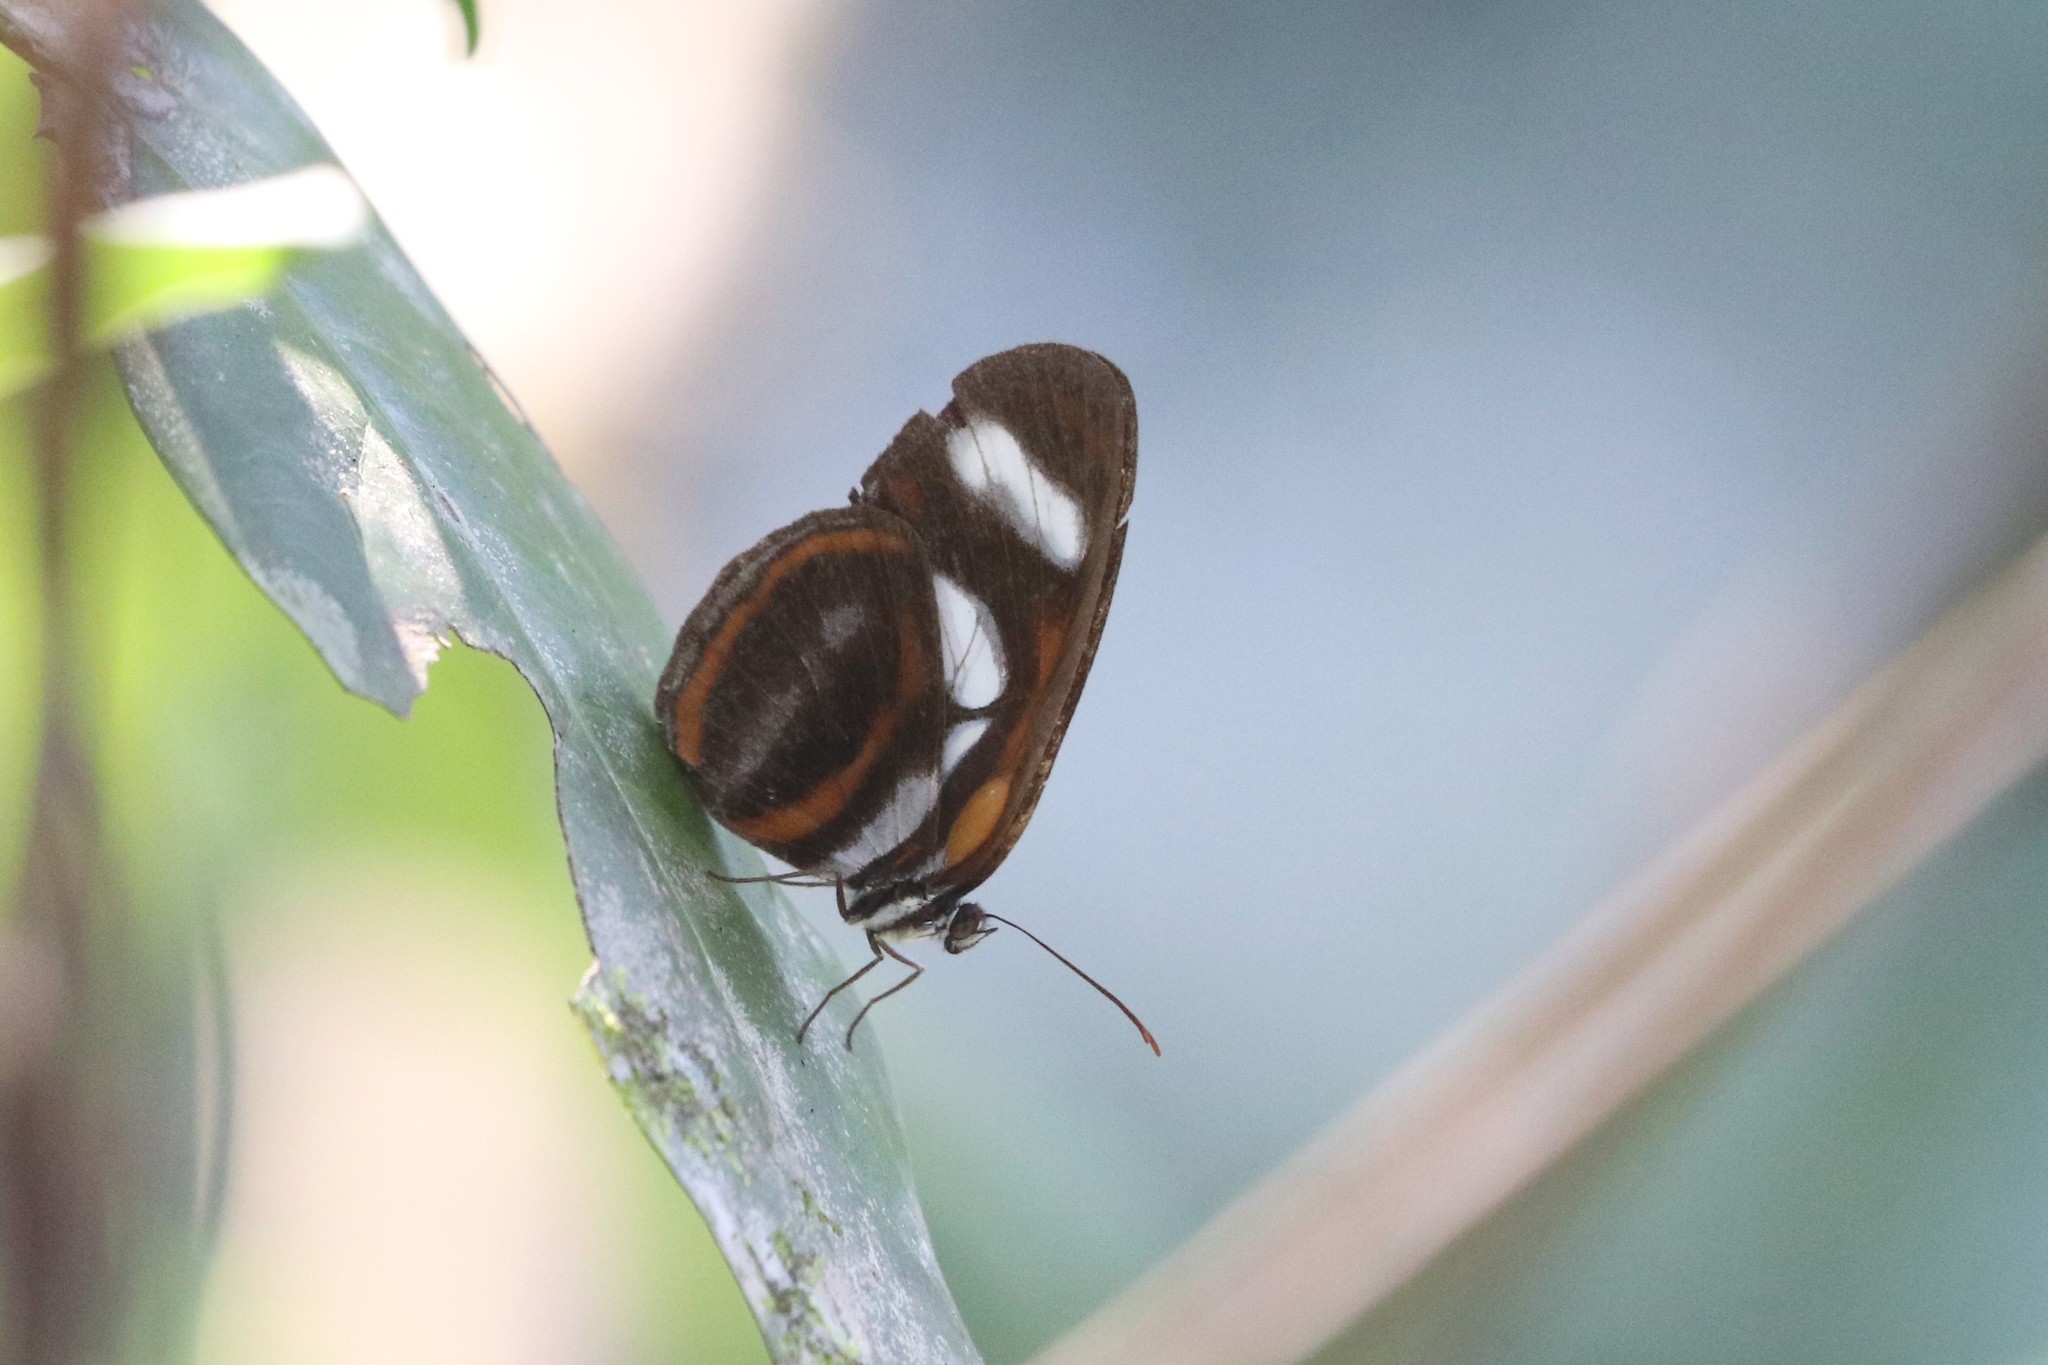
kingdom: Animalia
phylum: Arthropoda
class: Insecta
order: Lepidoptera
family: Nymphalidae
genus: Vila
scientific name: Vila emilia
